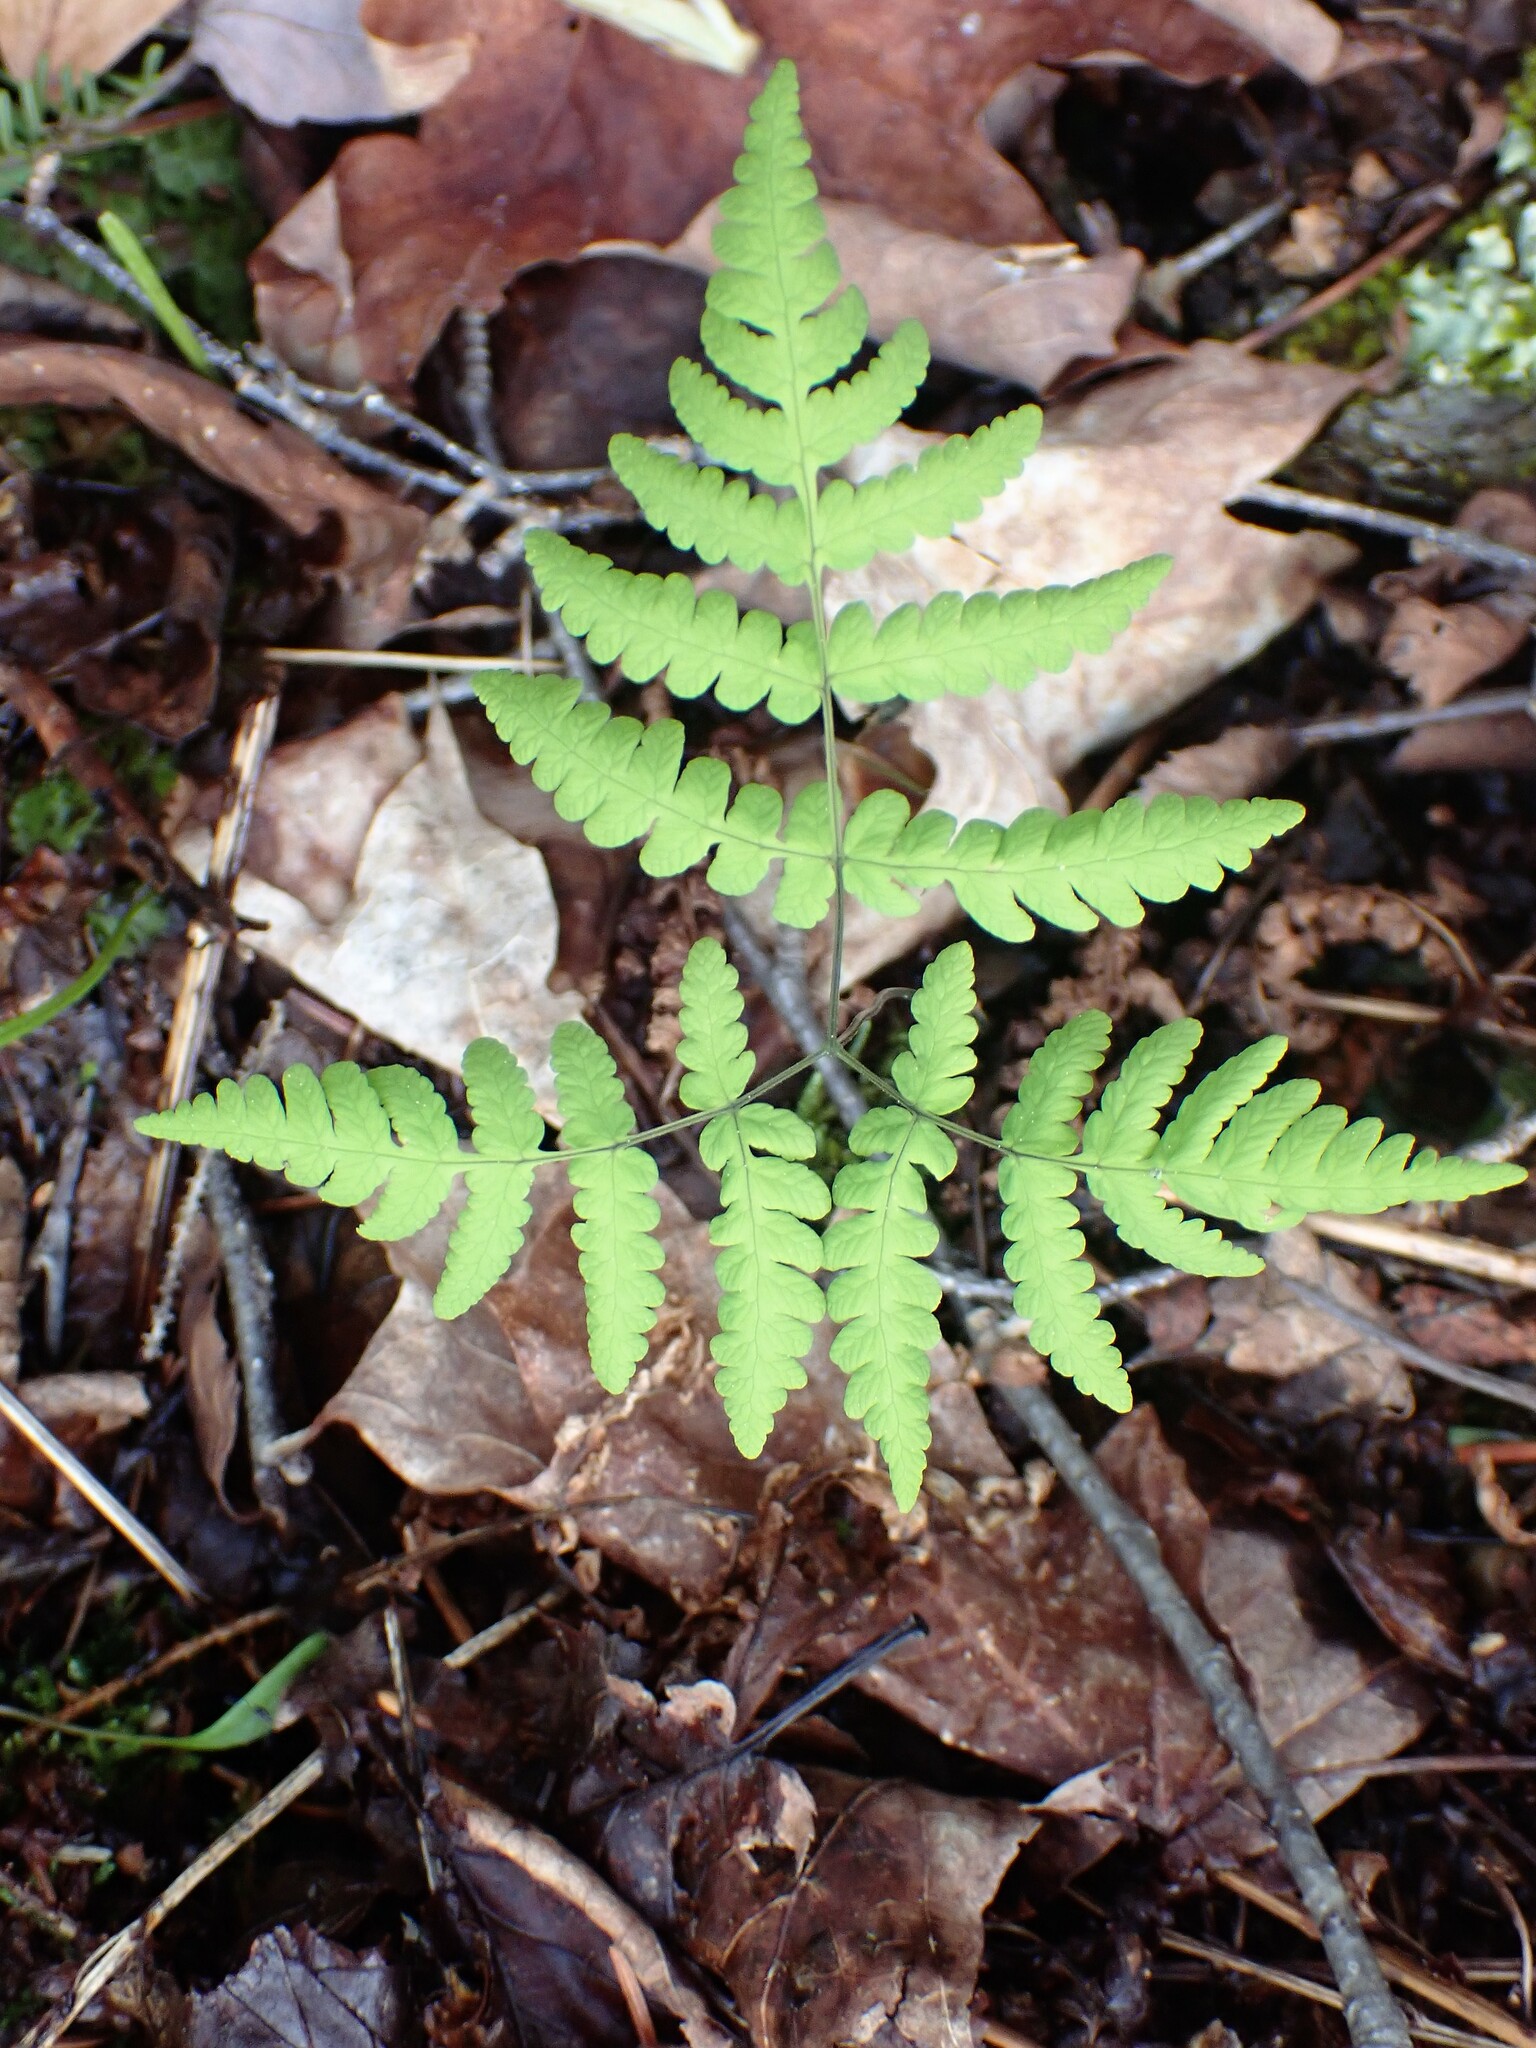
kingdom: Plantae
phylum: Tracheophyta
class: Polypodiopsida
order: Polypodiales
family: Cystopteridaceae
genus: Gymnocarpium
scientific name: Gymnocarpium dryopteris
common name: Oak fern
